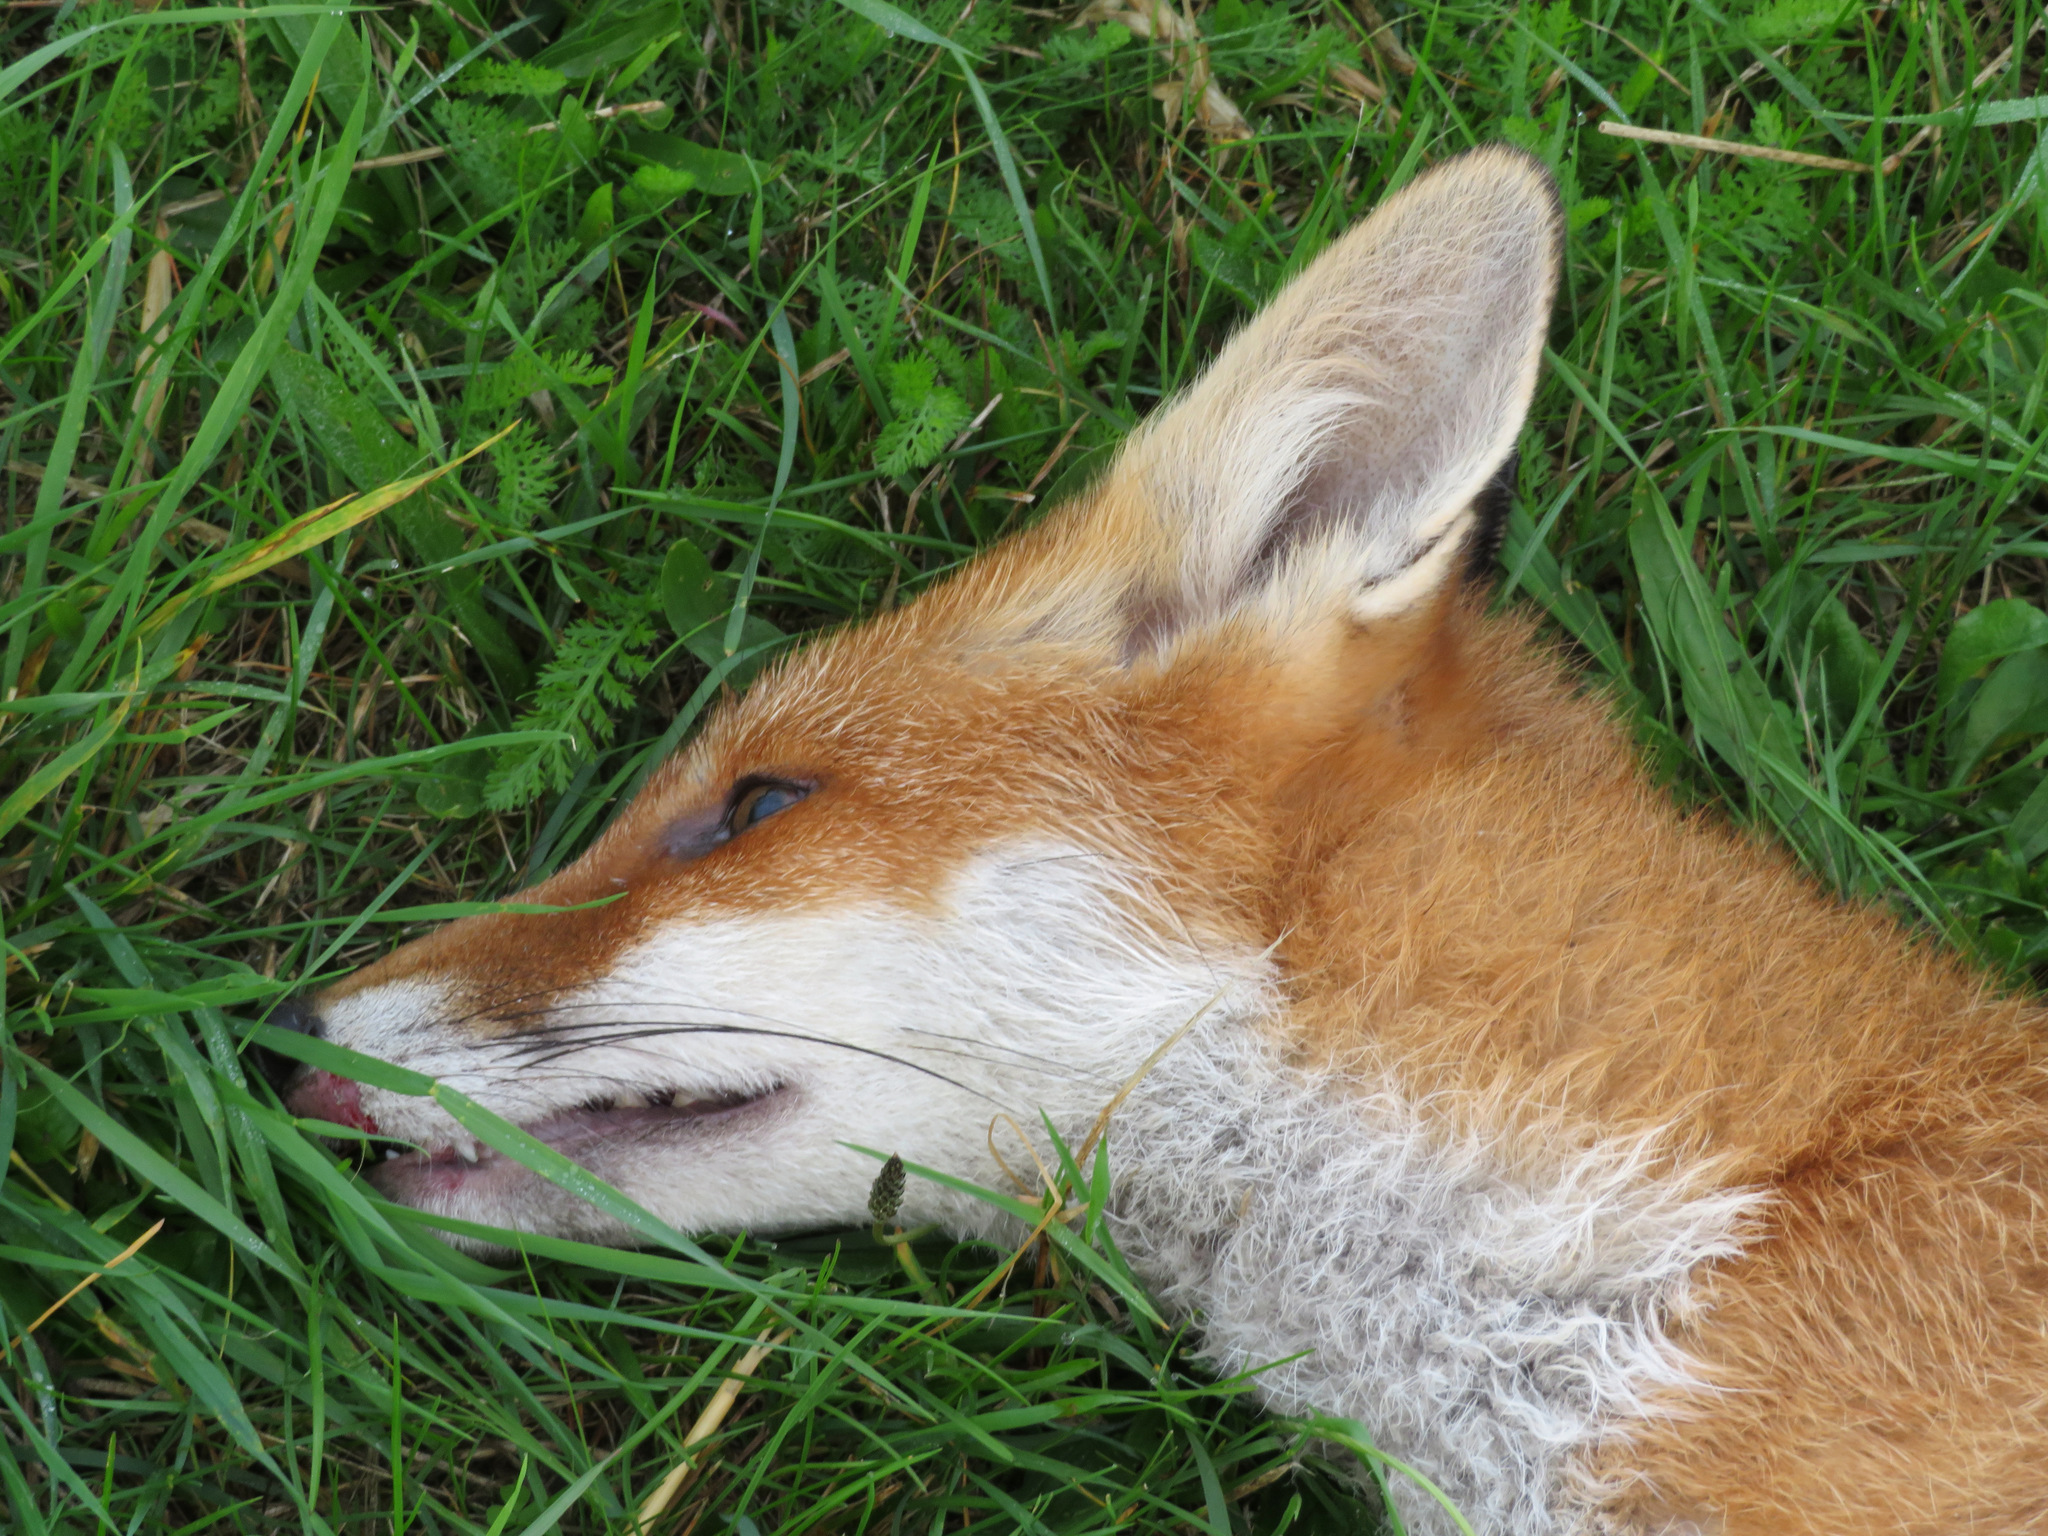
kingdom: Animalia
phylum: Chordata
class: Mammalia
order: Carnivora
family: Canidae
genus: Vulpes
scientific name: Vulpes vulpes
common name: Red fox
